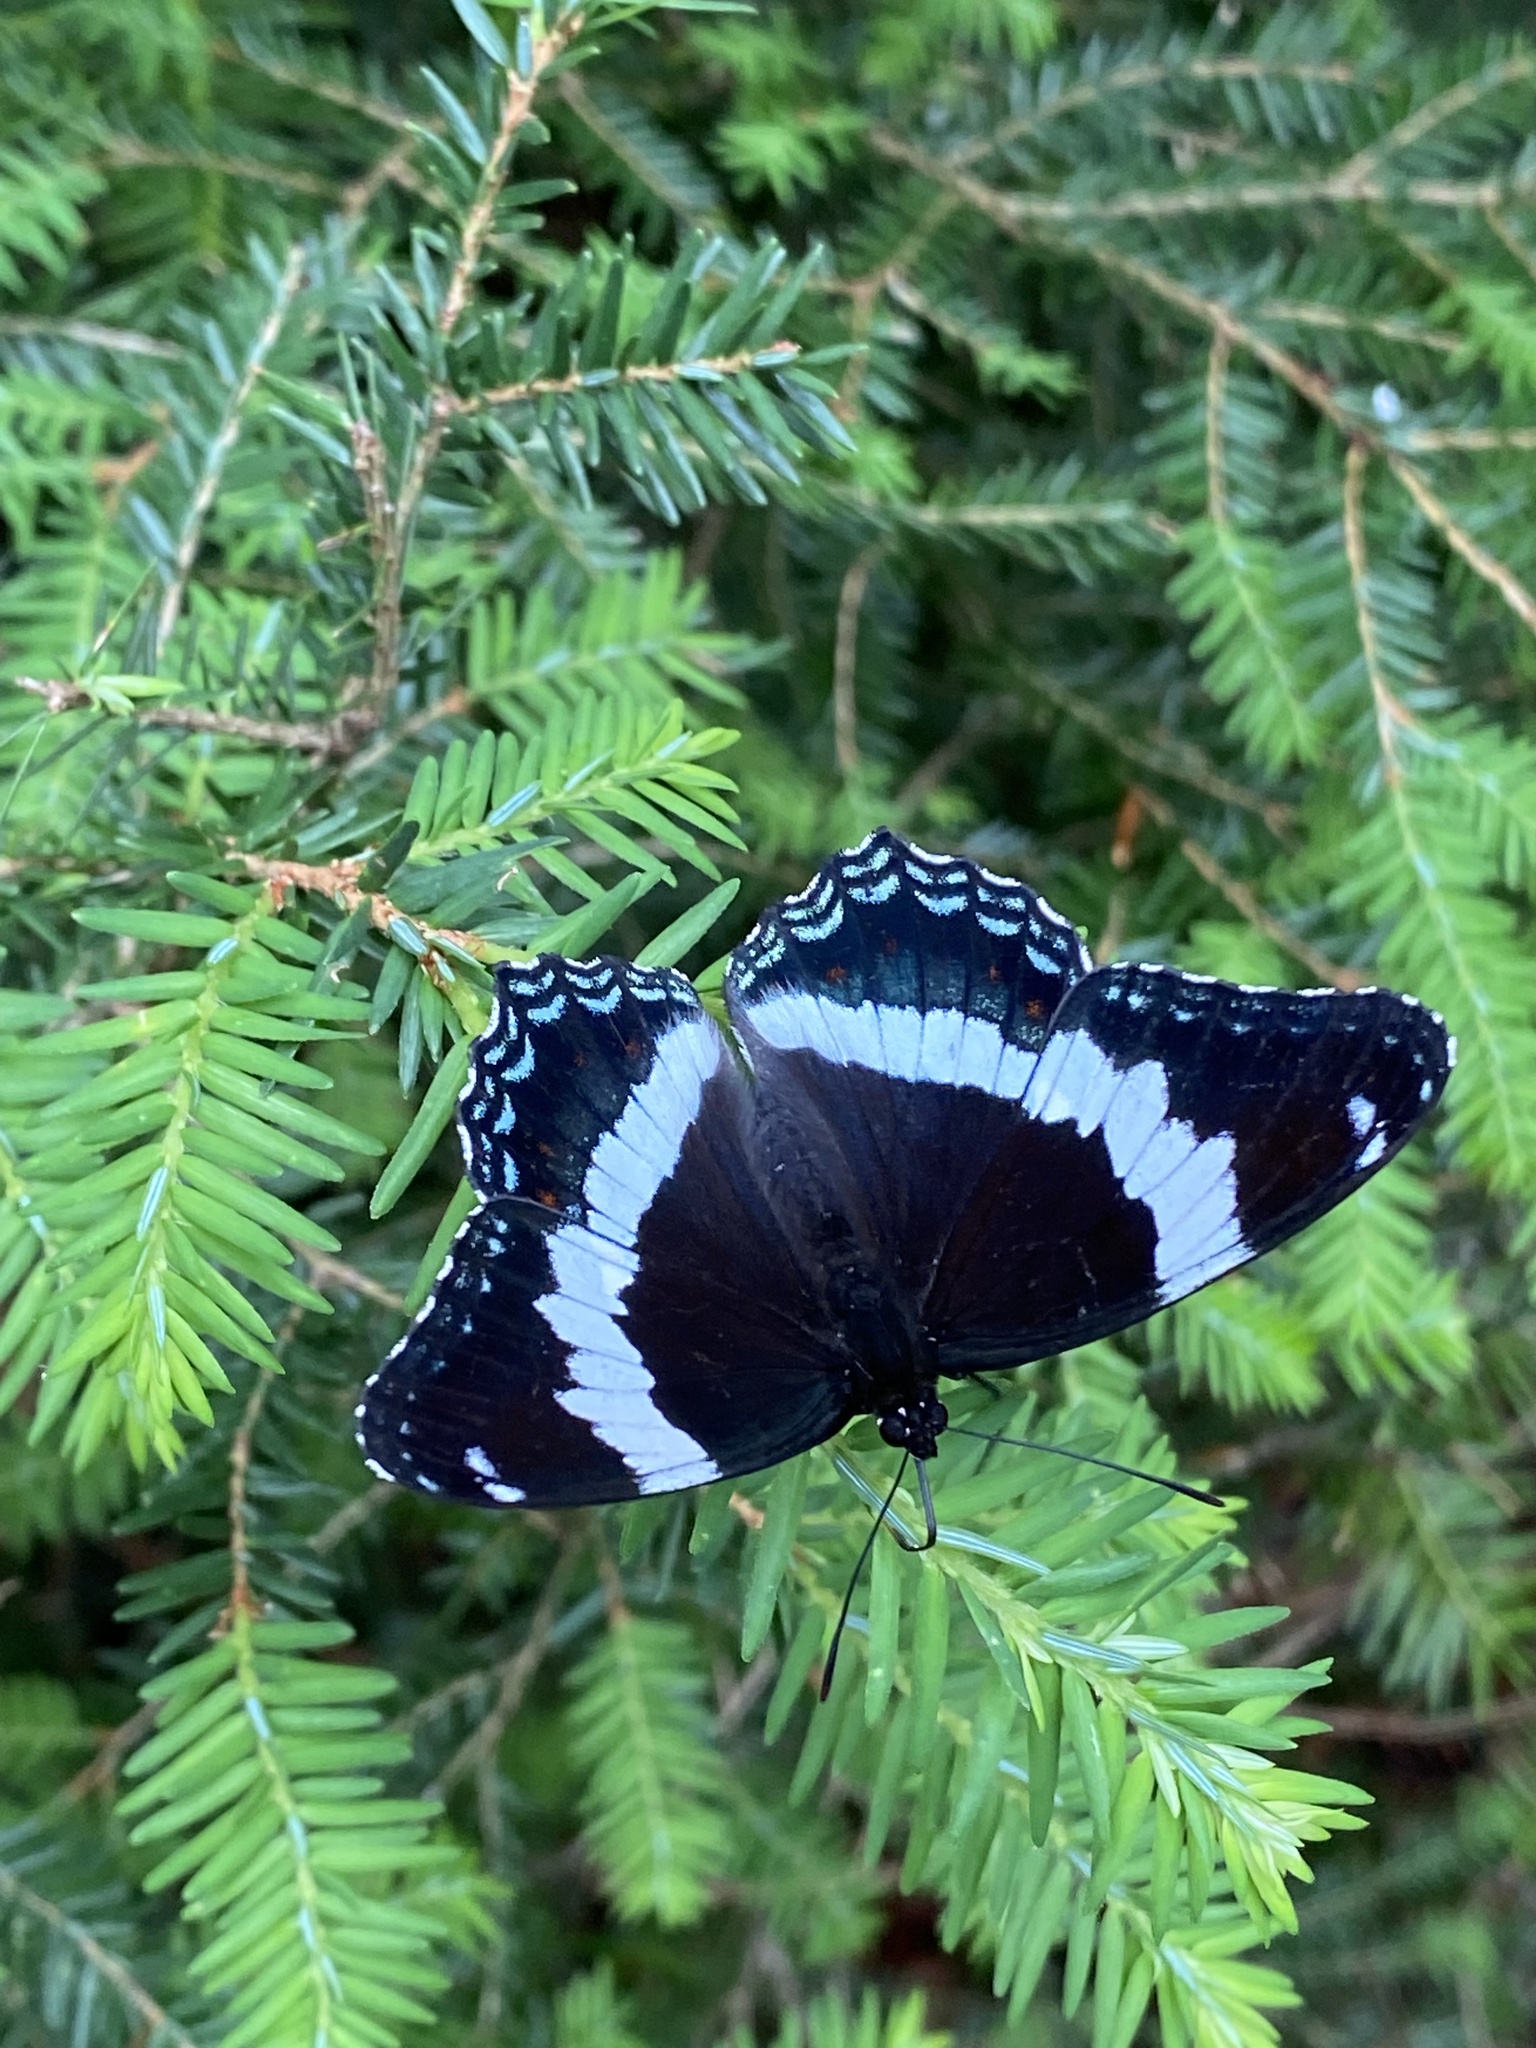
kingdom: Animalia
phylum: Arthropoda
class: Insecta
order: Lepidoptera
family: Nymphalidae
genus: Limenitis
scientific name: Limenitis arthemis
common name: Red-spotted admiral
